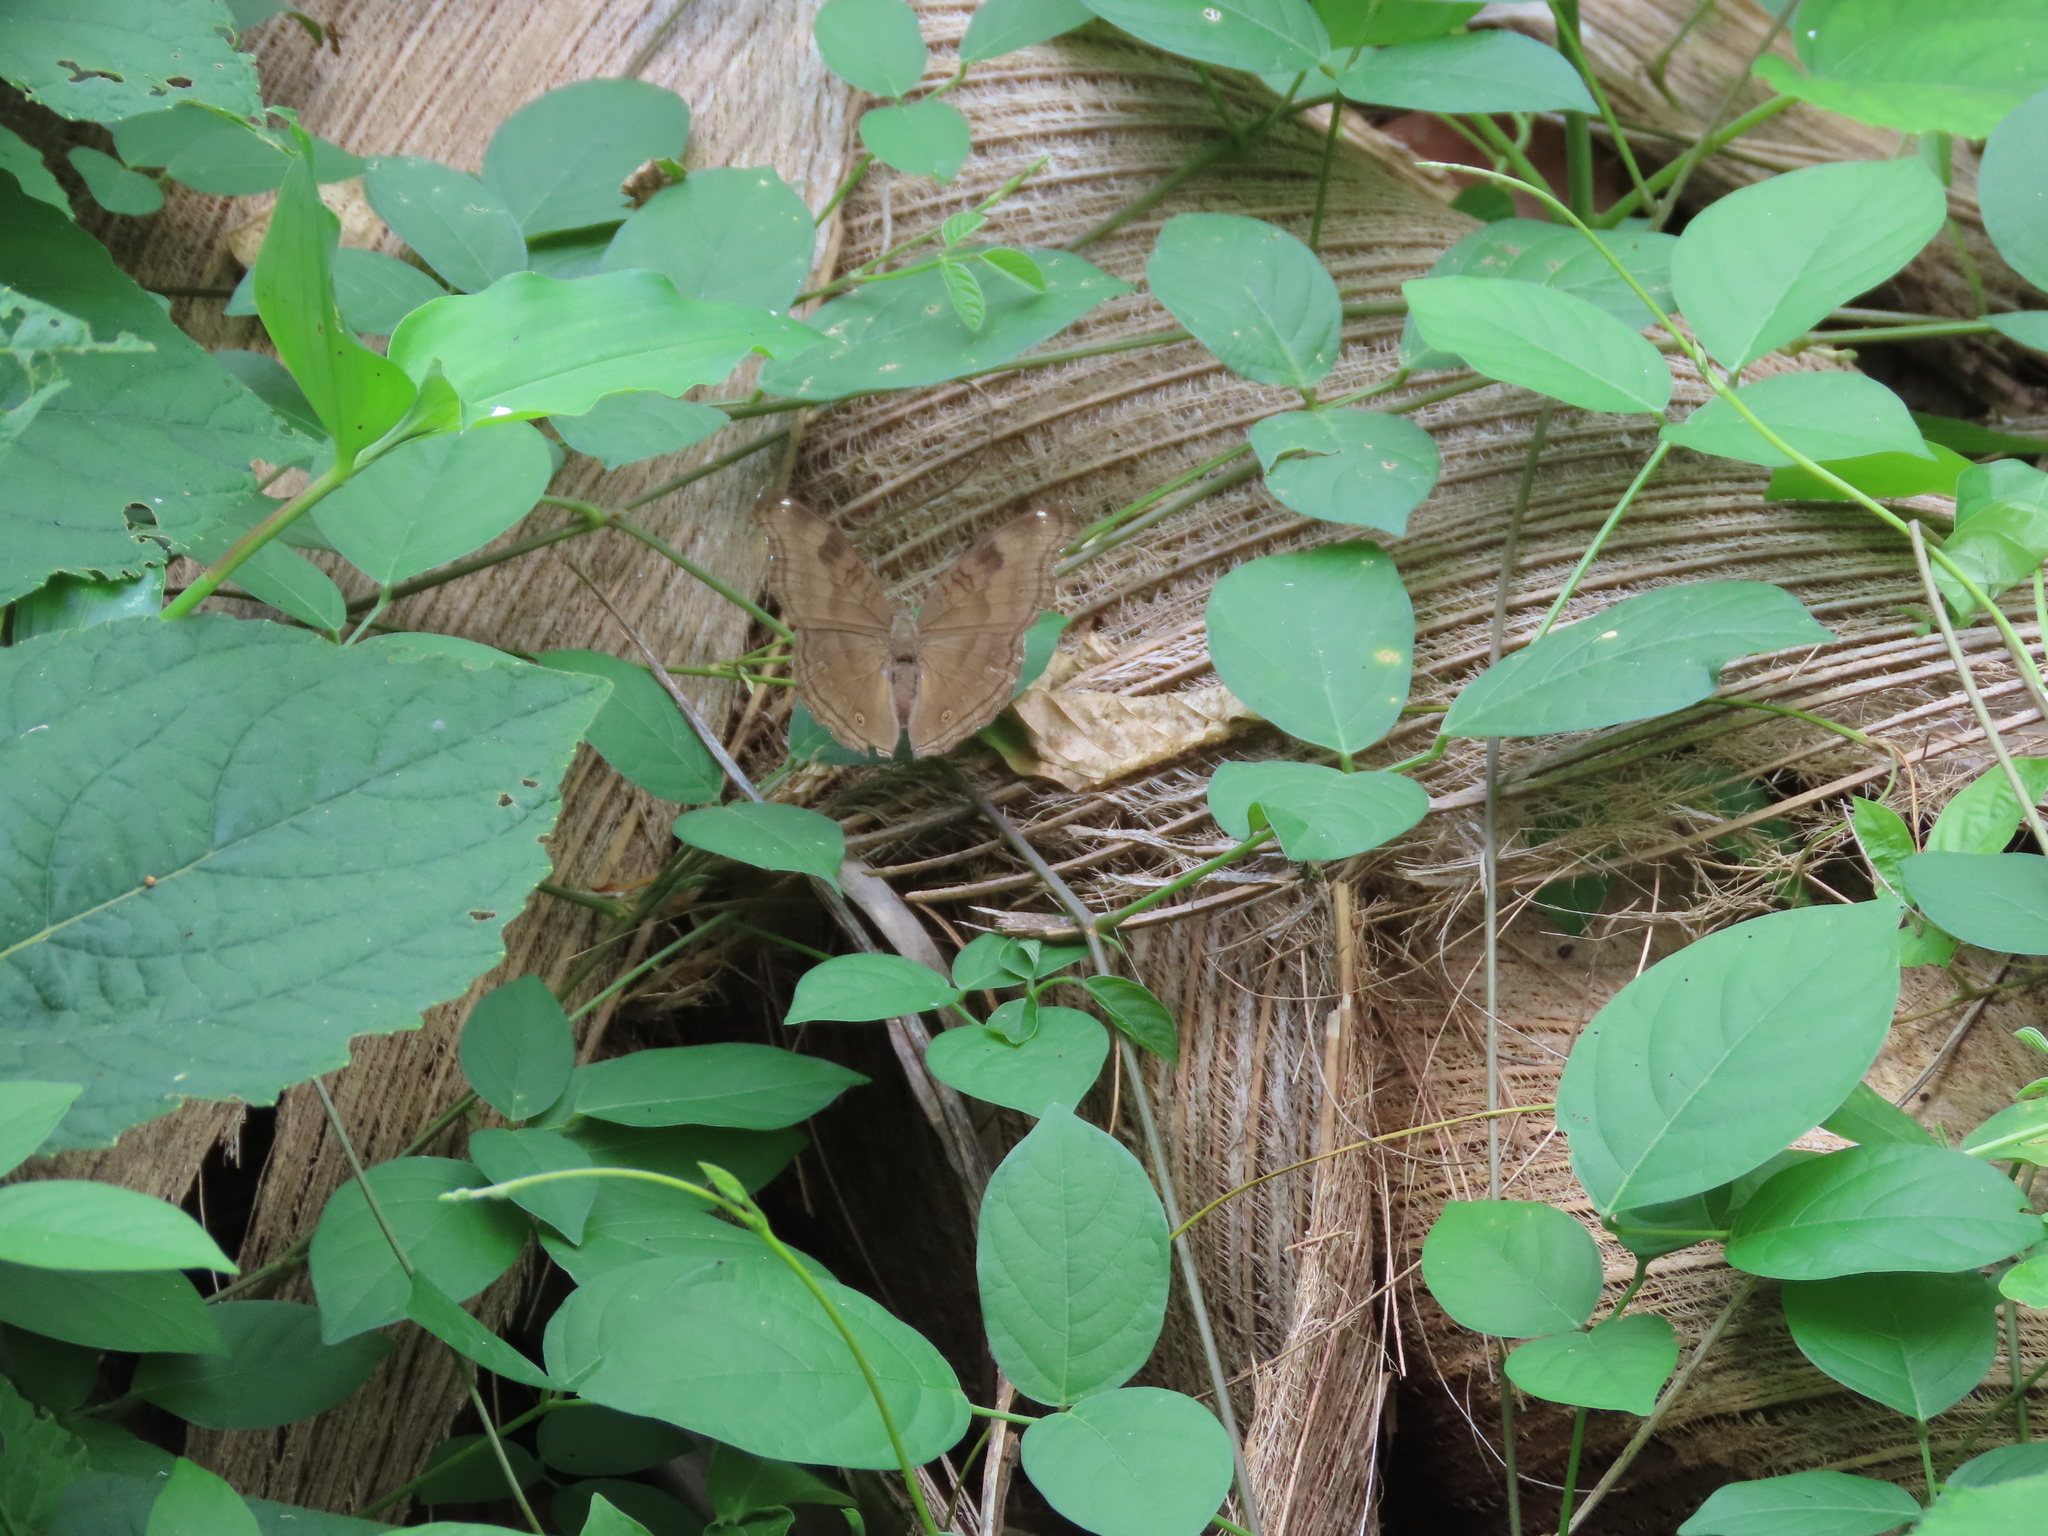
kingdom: Animalia
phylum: Arthropoda
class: Insecta
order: Lepidoptera
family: Nymphalidae
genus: Junonia
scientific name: Junonia iphita
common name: Chocolate pansy
